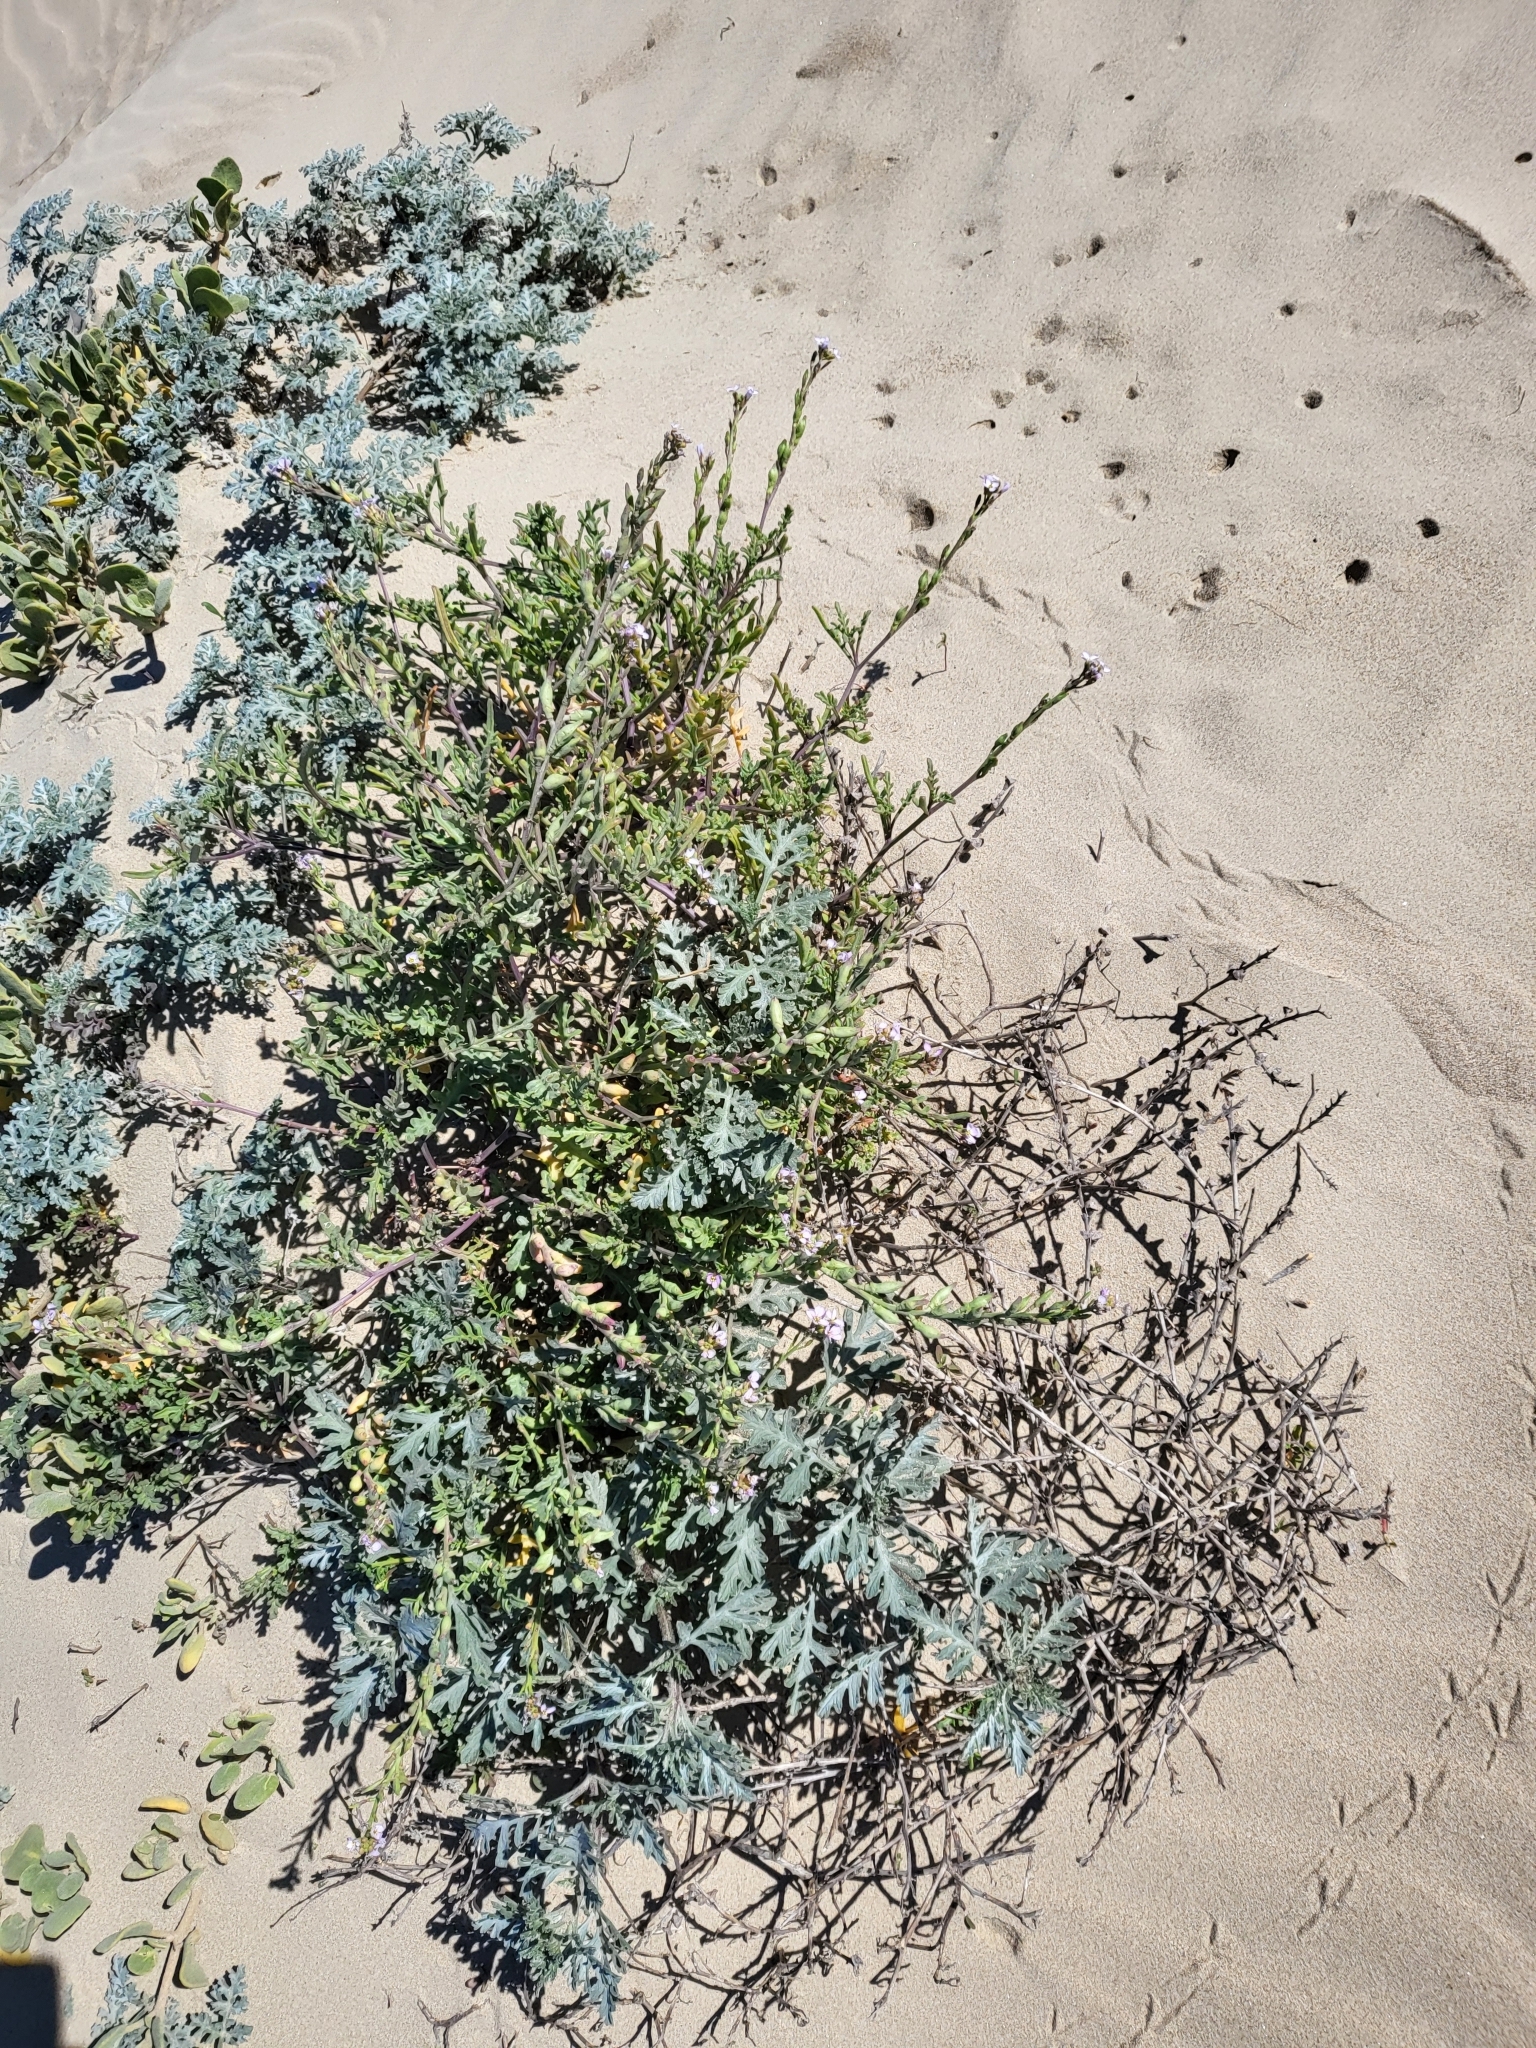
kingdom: Plantae
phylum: Tracheophyta
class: Magnoliopsida
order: Brassicales
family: Brassicaceae
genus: Cakile
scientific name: Cakile maritima
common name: Sea rocket
